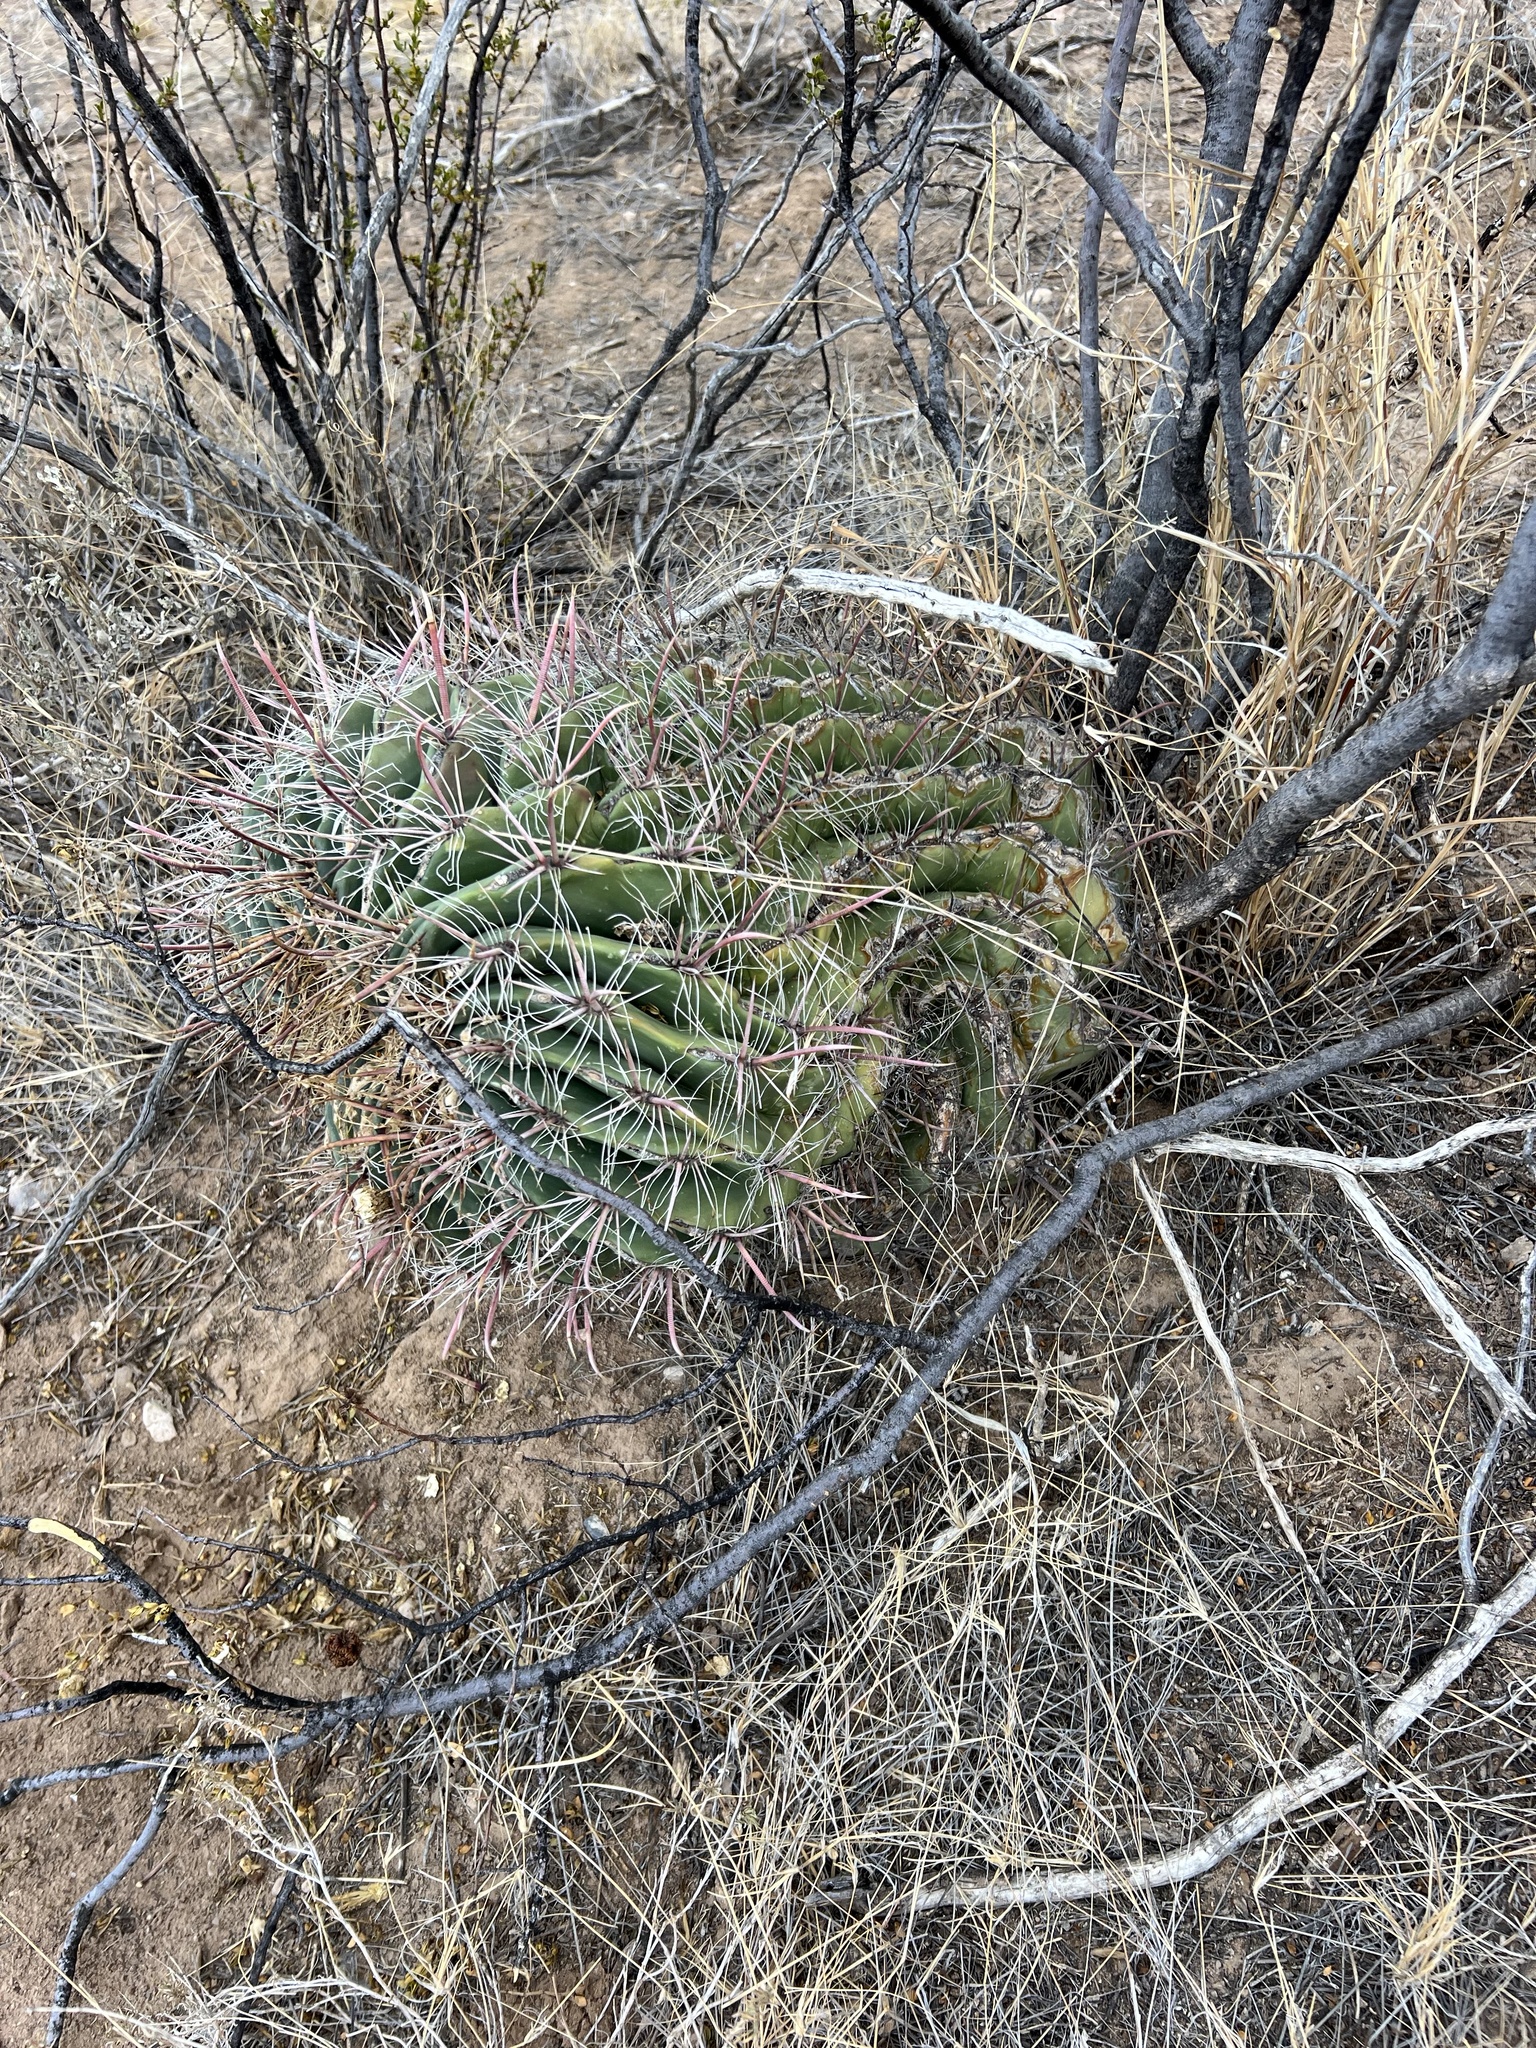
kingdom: Plantae
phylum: Tracheophyta
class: Magnoliopsida
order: Caryophyllales
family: Cactaceae
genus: Ferocactus
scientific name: Ferocactus wislizeni
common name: Candy barrel cactus
